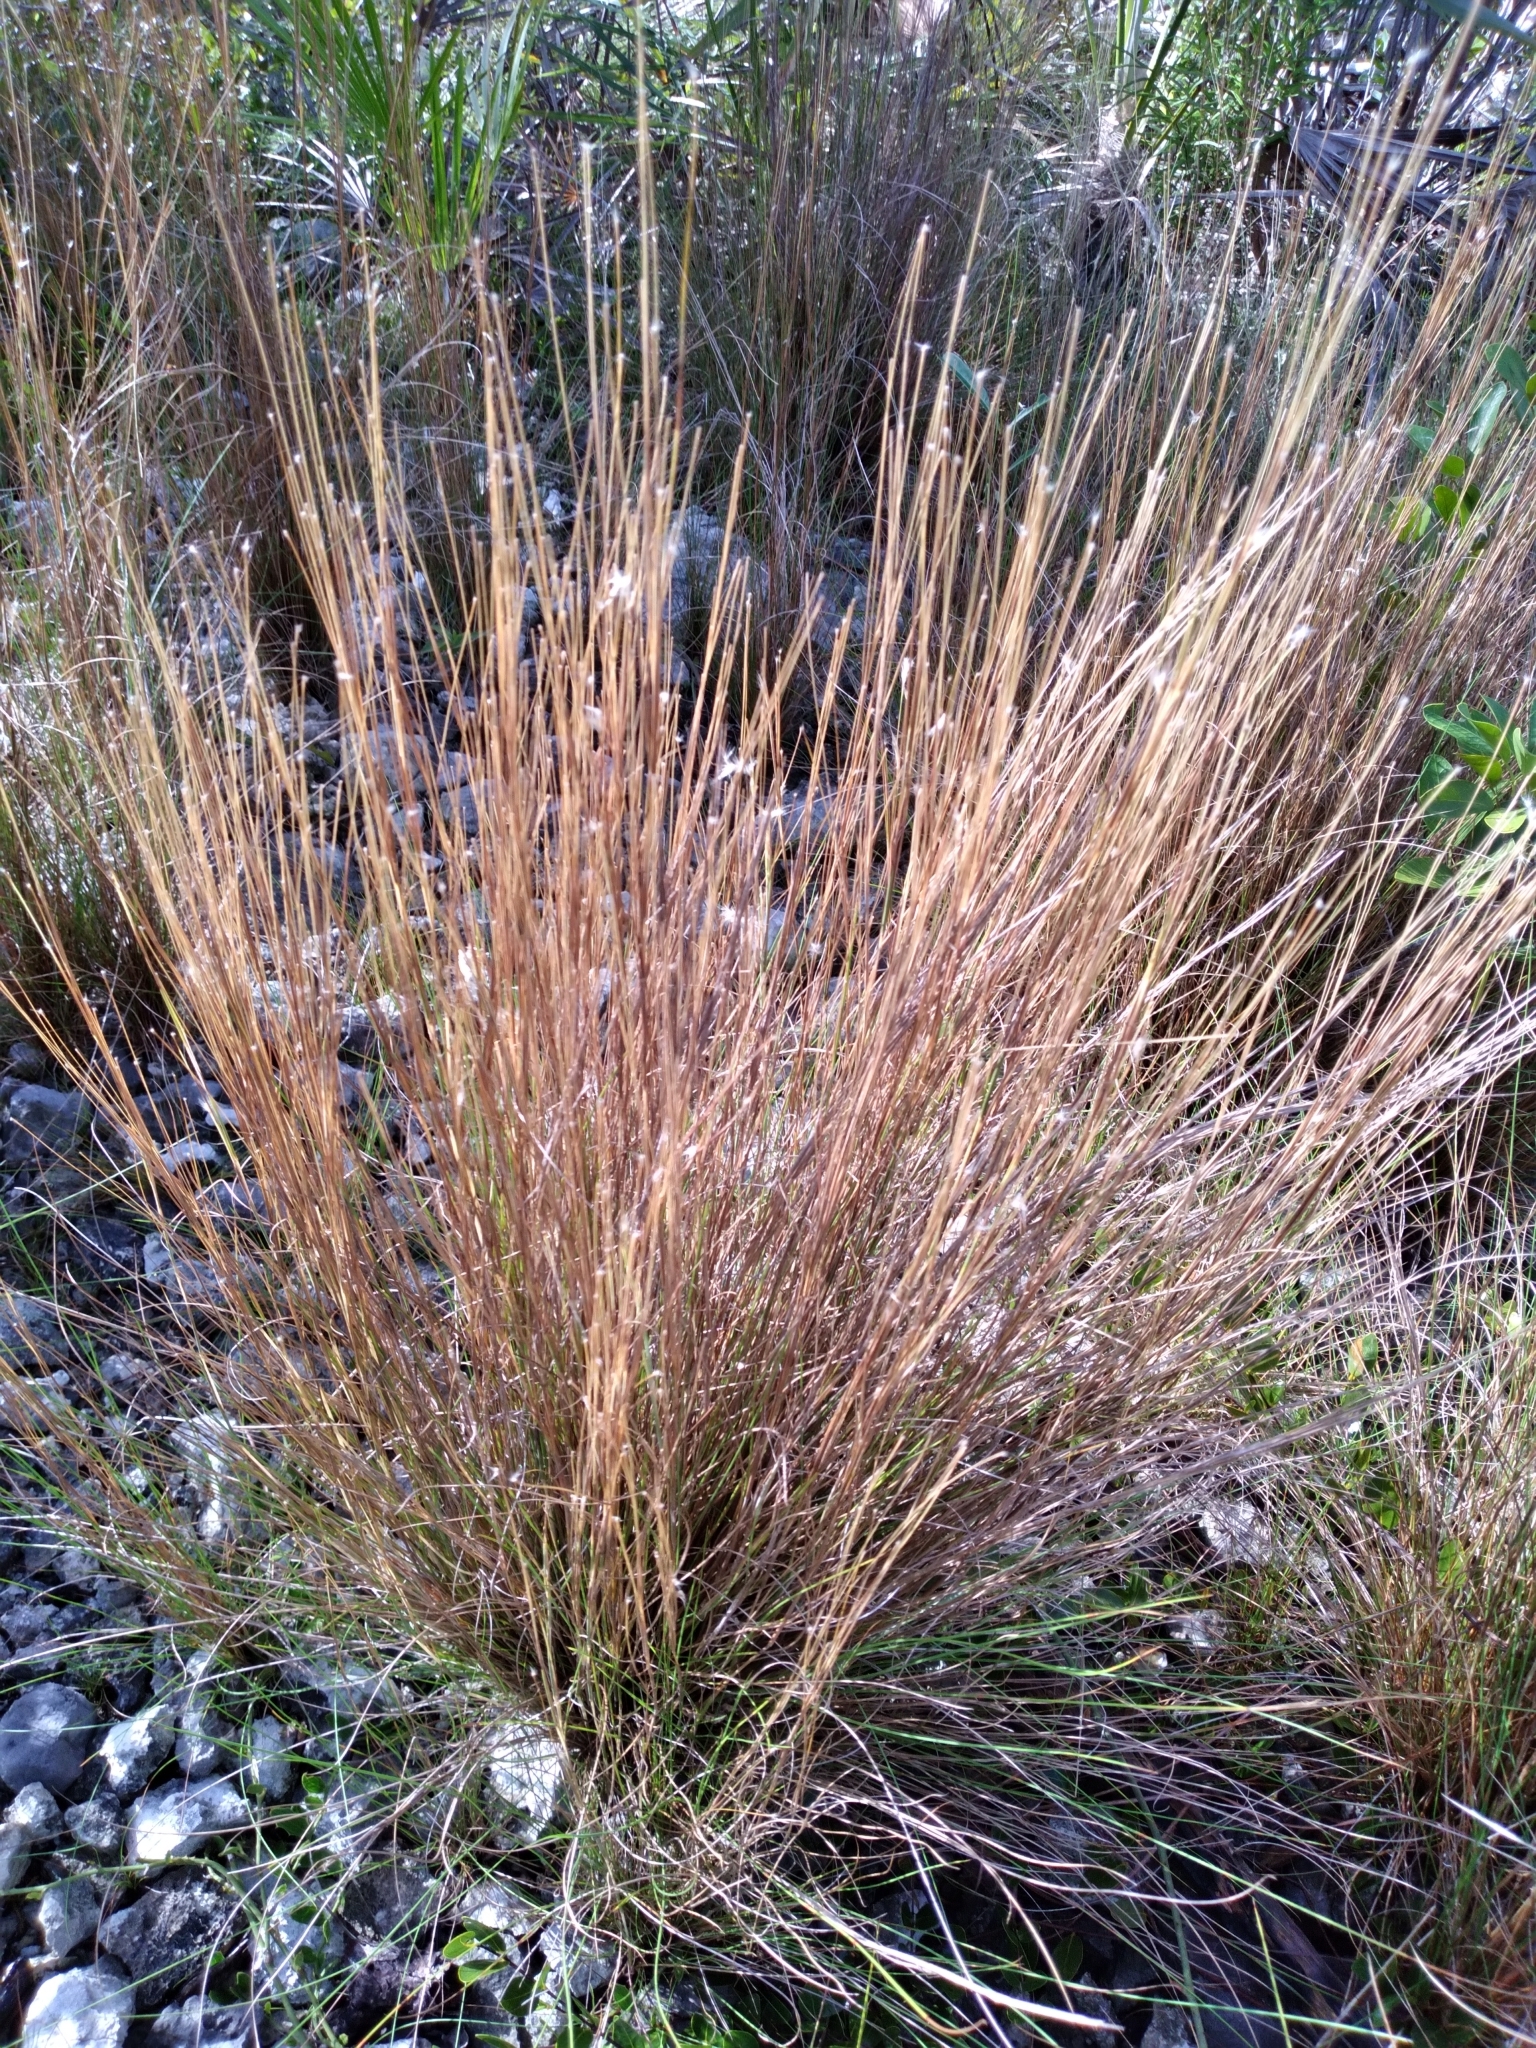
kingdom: Plantae
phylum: Tracheophyta
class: Liliopsida
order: Poales
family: Poaceae
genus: Schizachyrium
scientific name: Schizachyrium gracile
